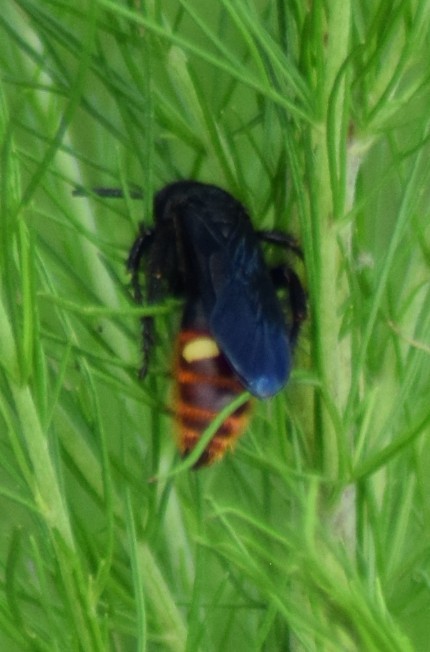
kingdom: Animalia
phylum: Arthropoda
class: Insecta
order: Hymenoptera
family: Scoliidae
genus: Scolia
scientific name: Scolia dubia
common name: Blue-winged scoliid wasp
